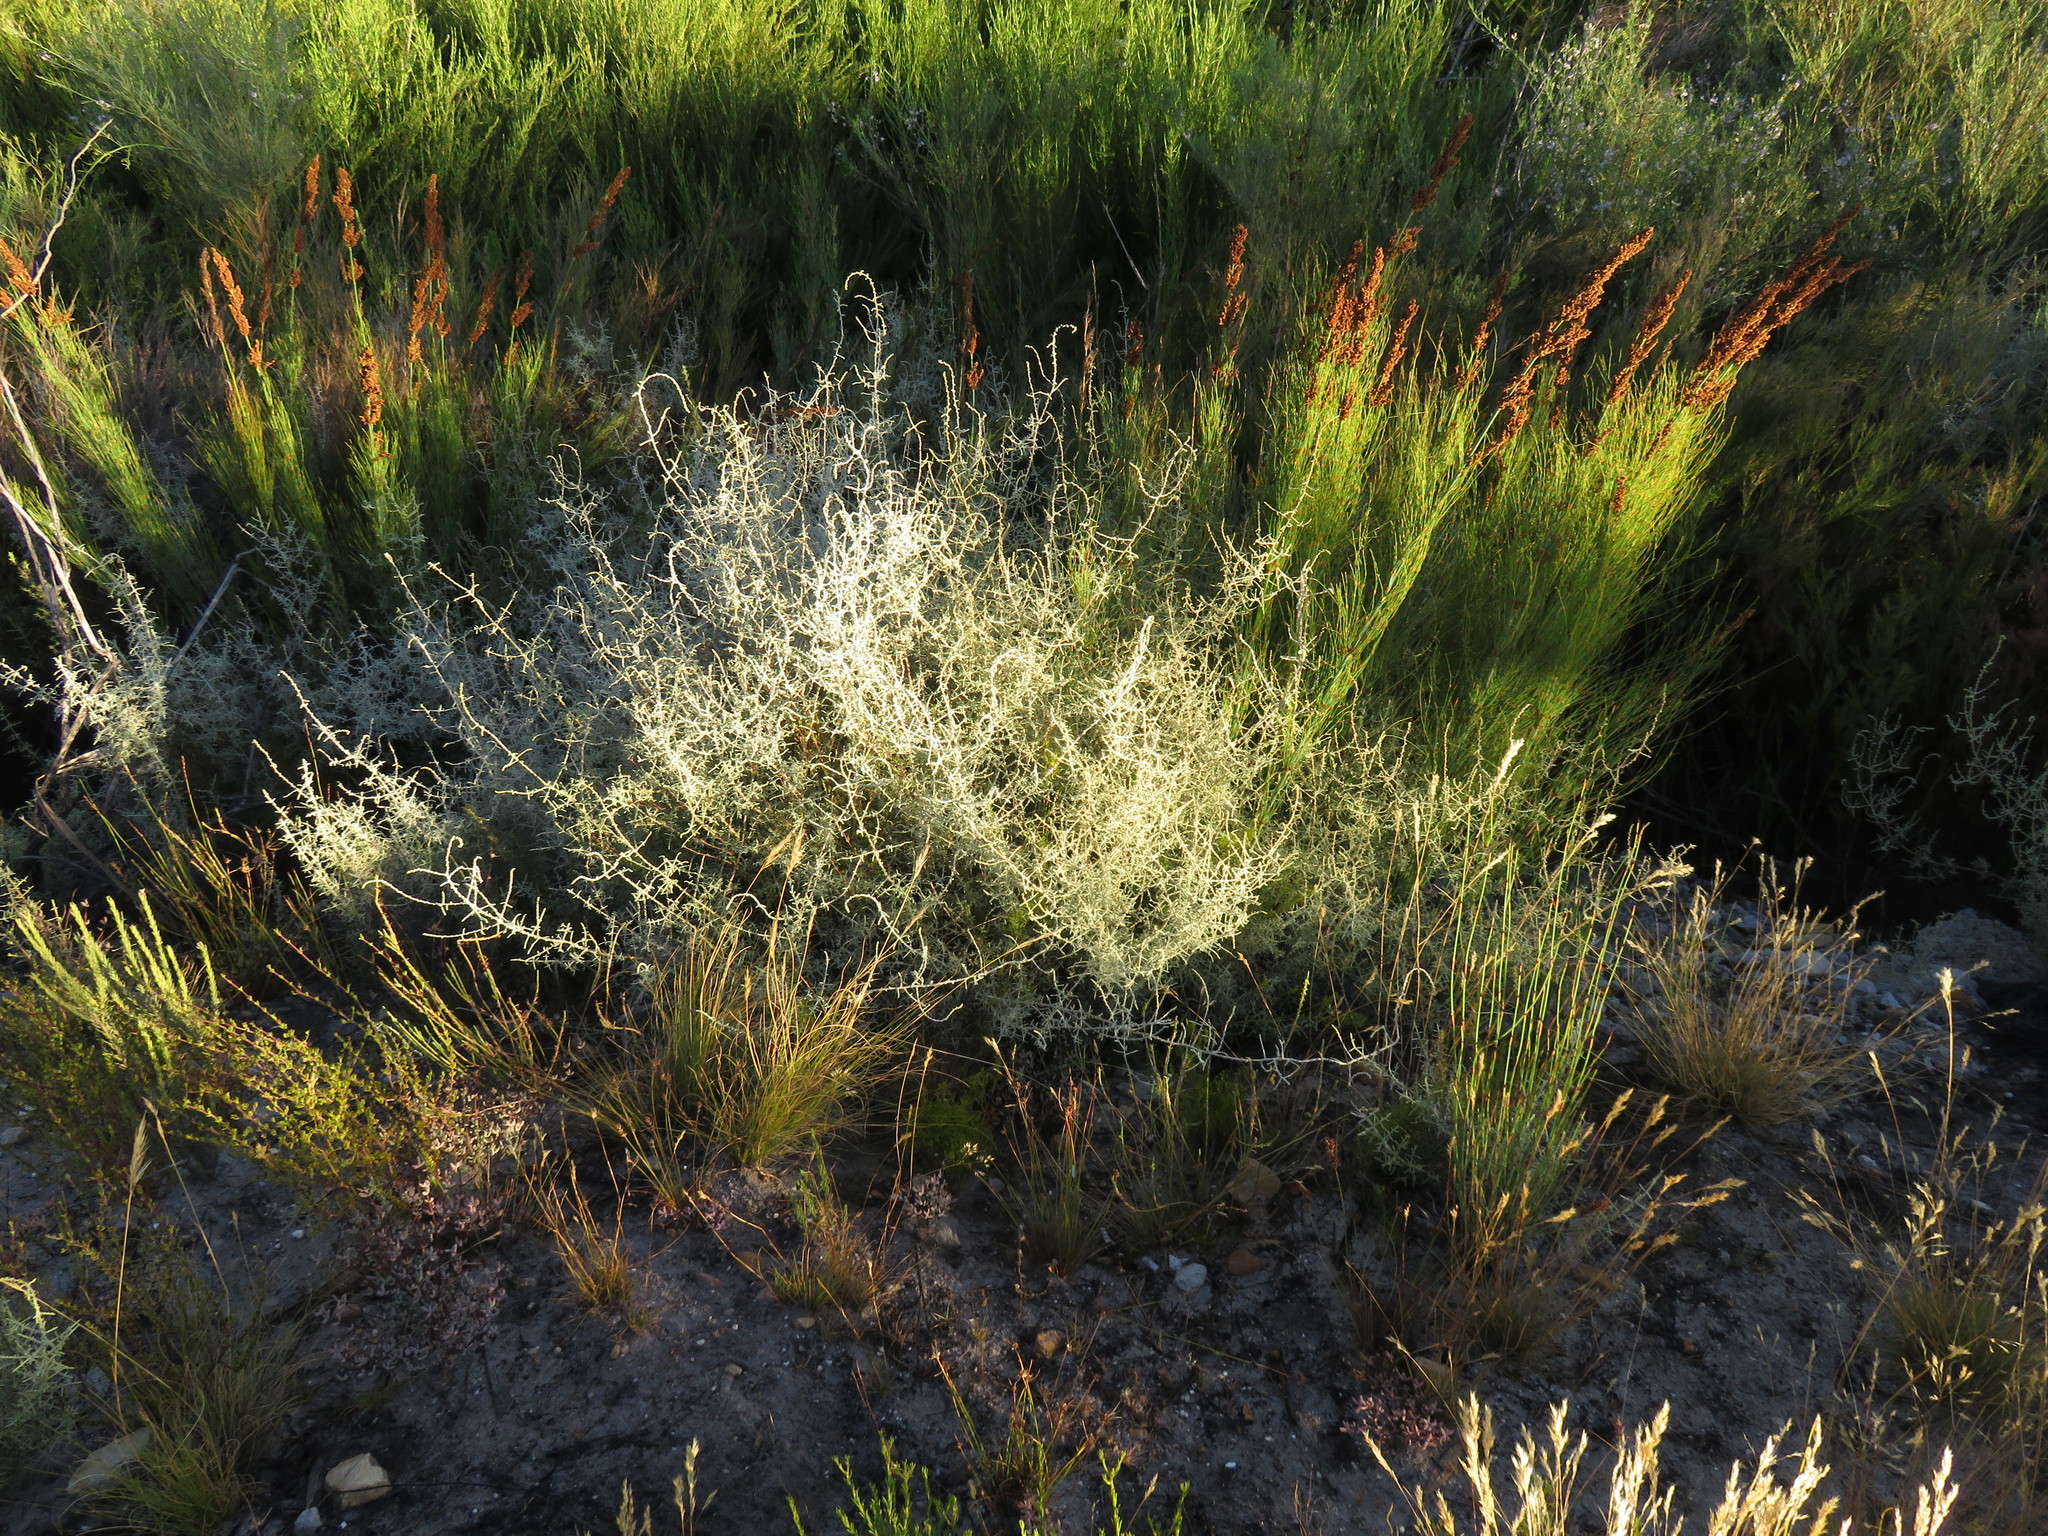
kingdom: Plantae
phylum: Tracheophyta
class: Magnoliopsida
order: Asterales
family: Asteraceae
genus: Seriphium
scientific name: Seriphium plumosum
